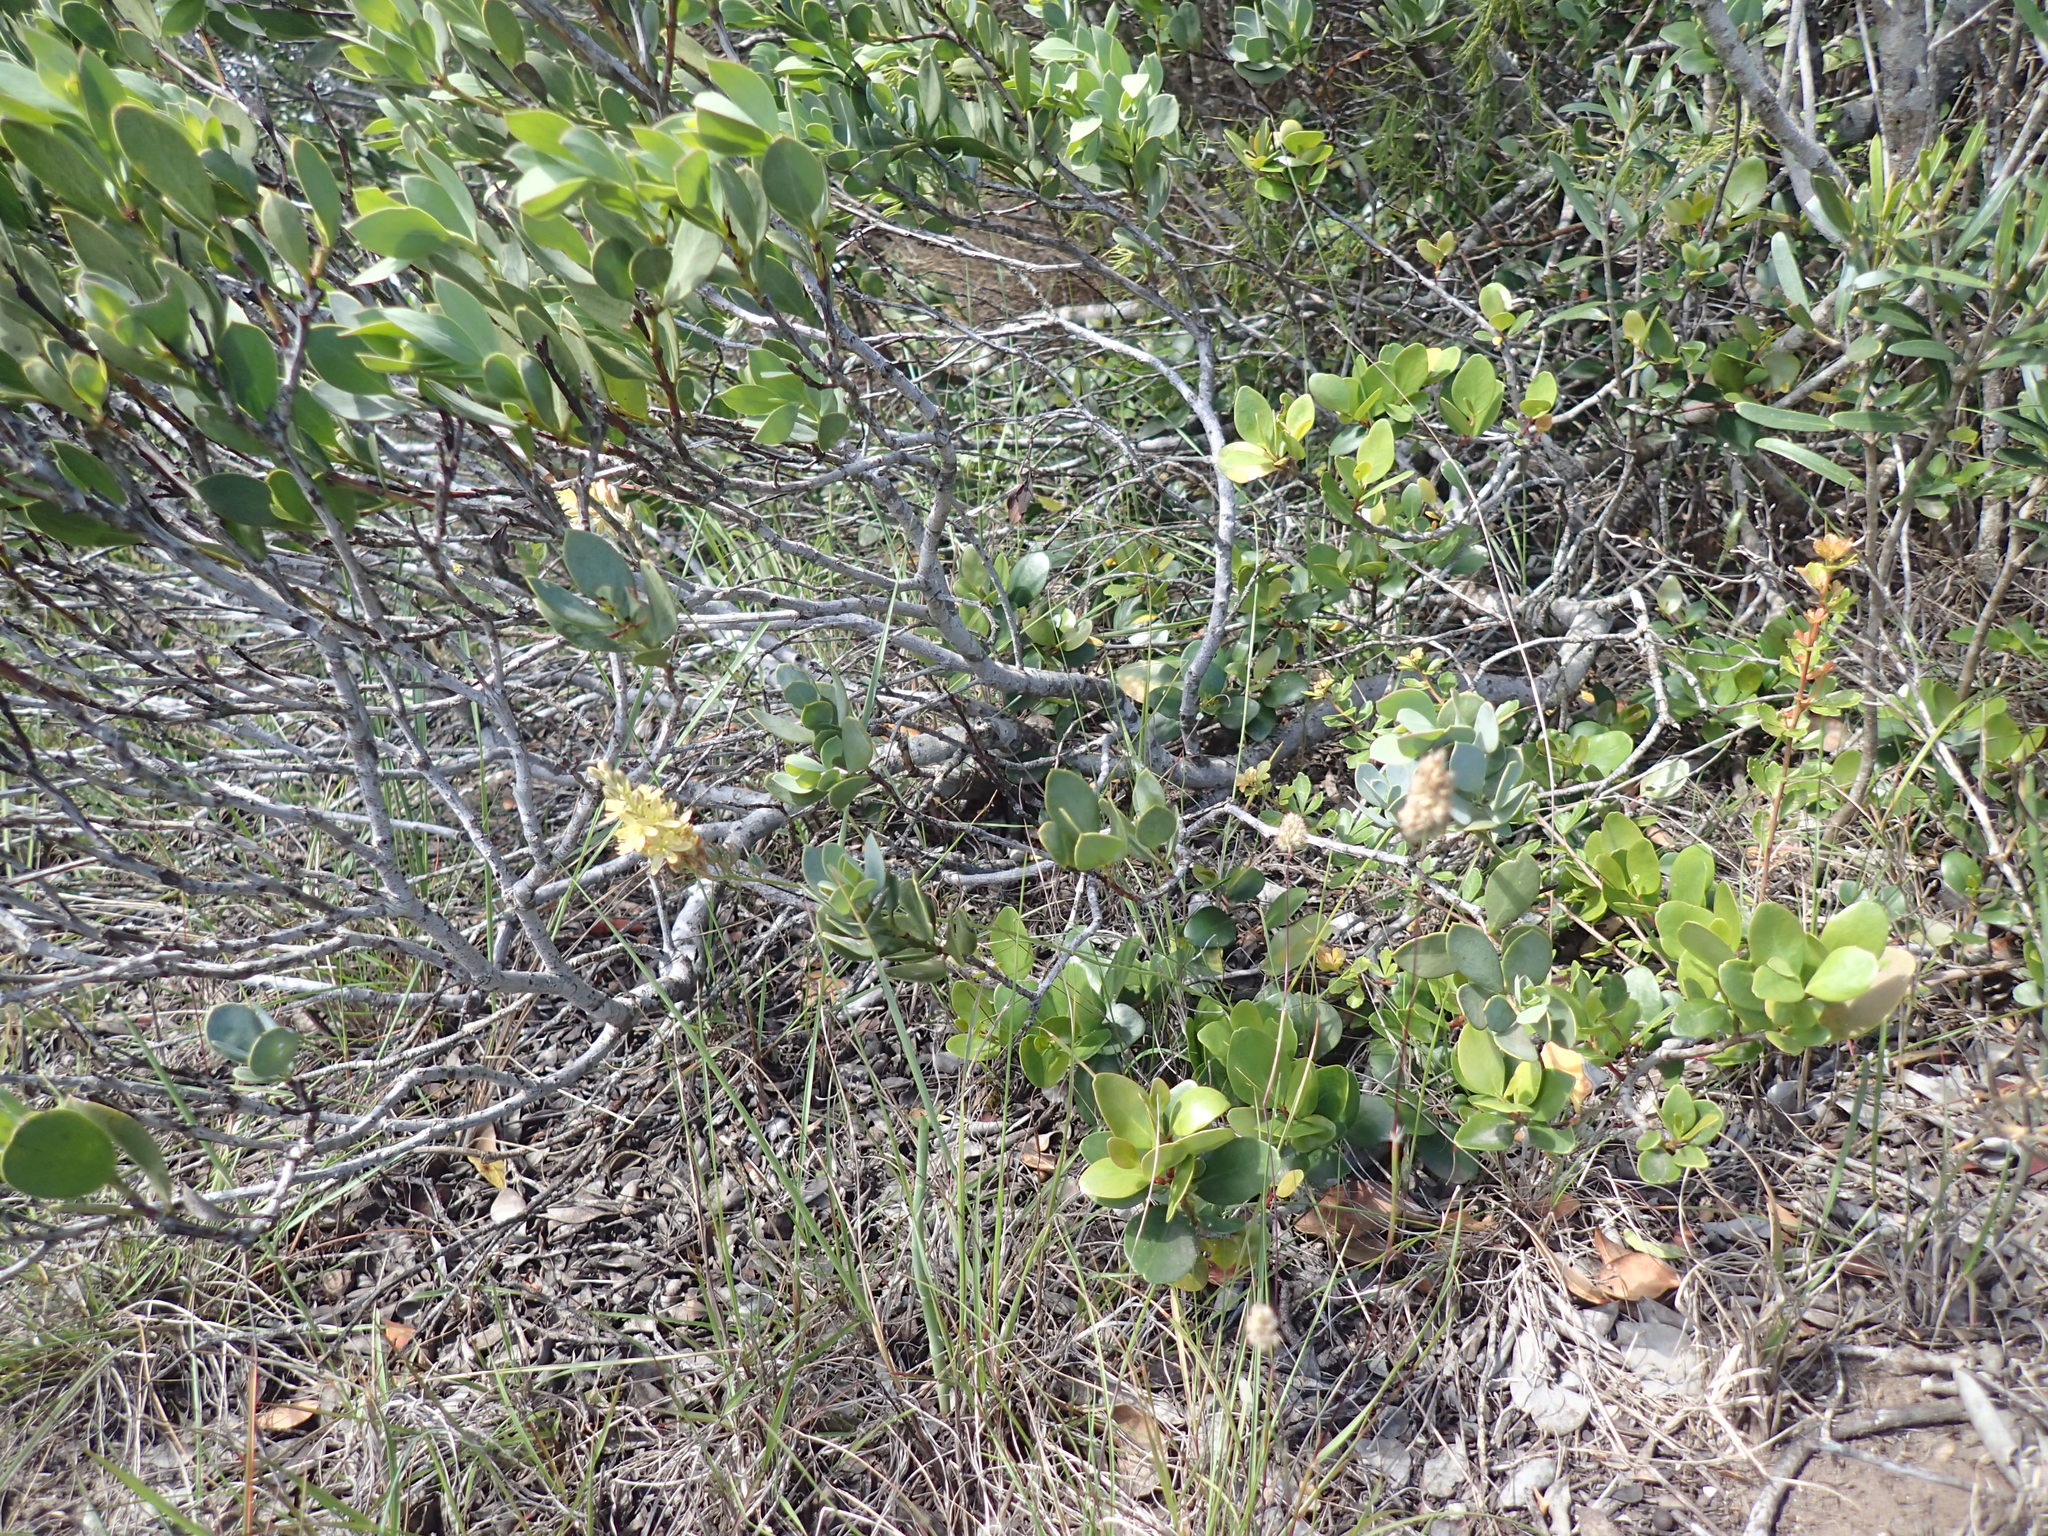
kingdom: Plantae
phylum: Tracheophyta
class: Liliopsida
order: Asparagales
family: Asparagaceae
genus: Ornithogalum
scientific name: Ornithogalum juncifolium
